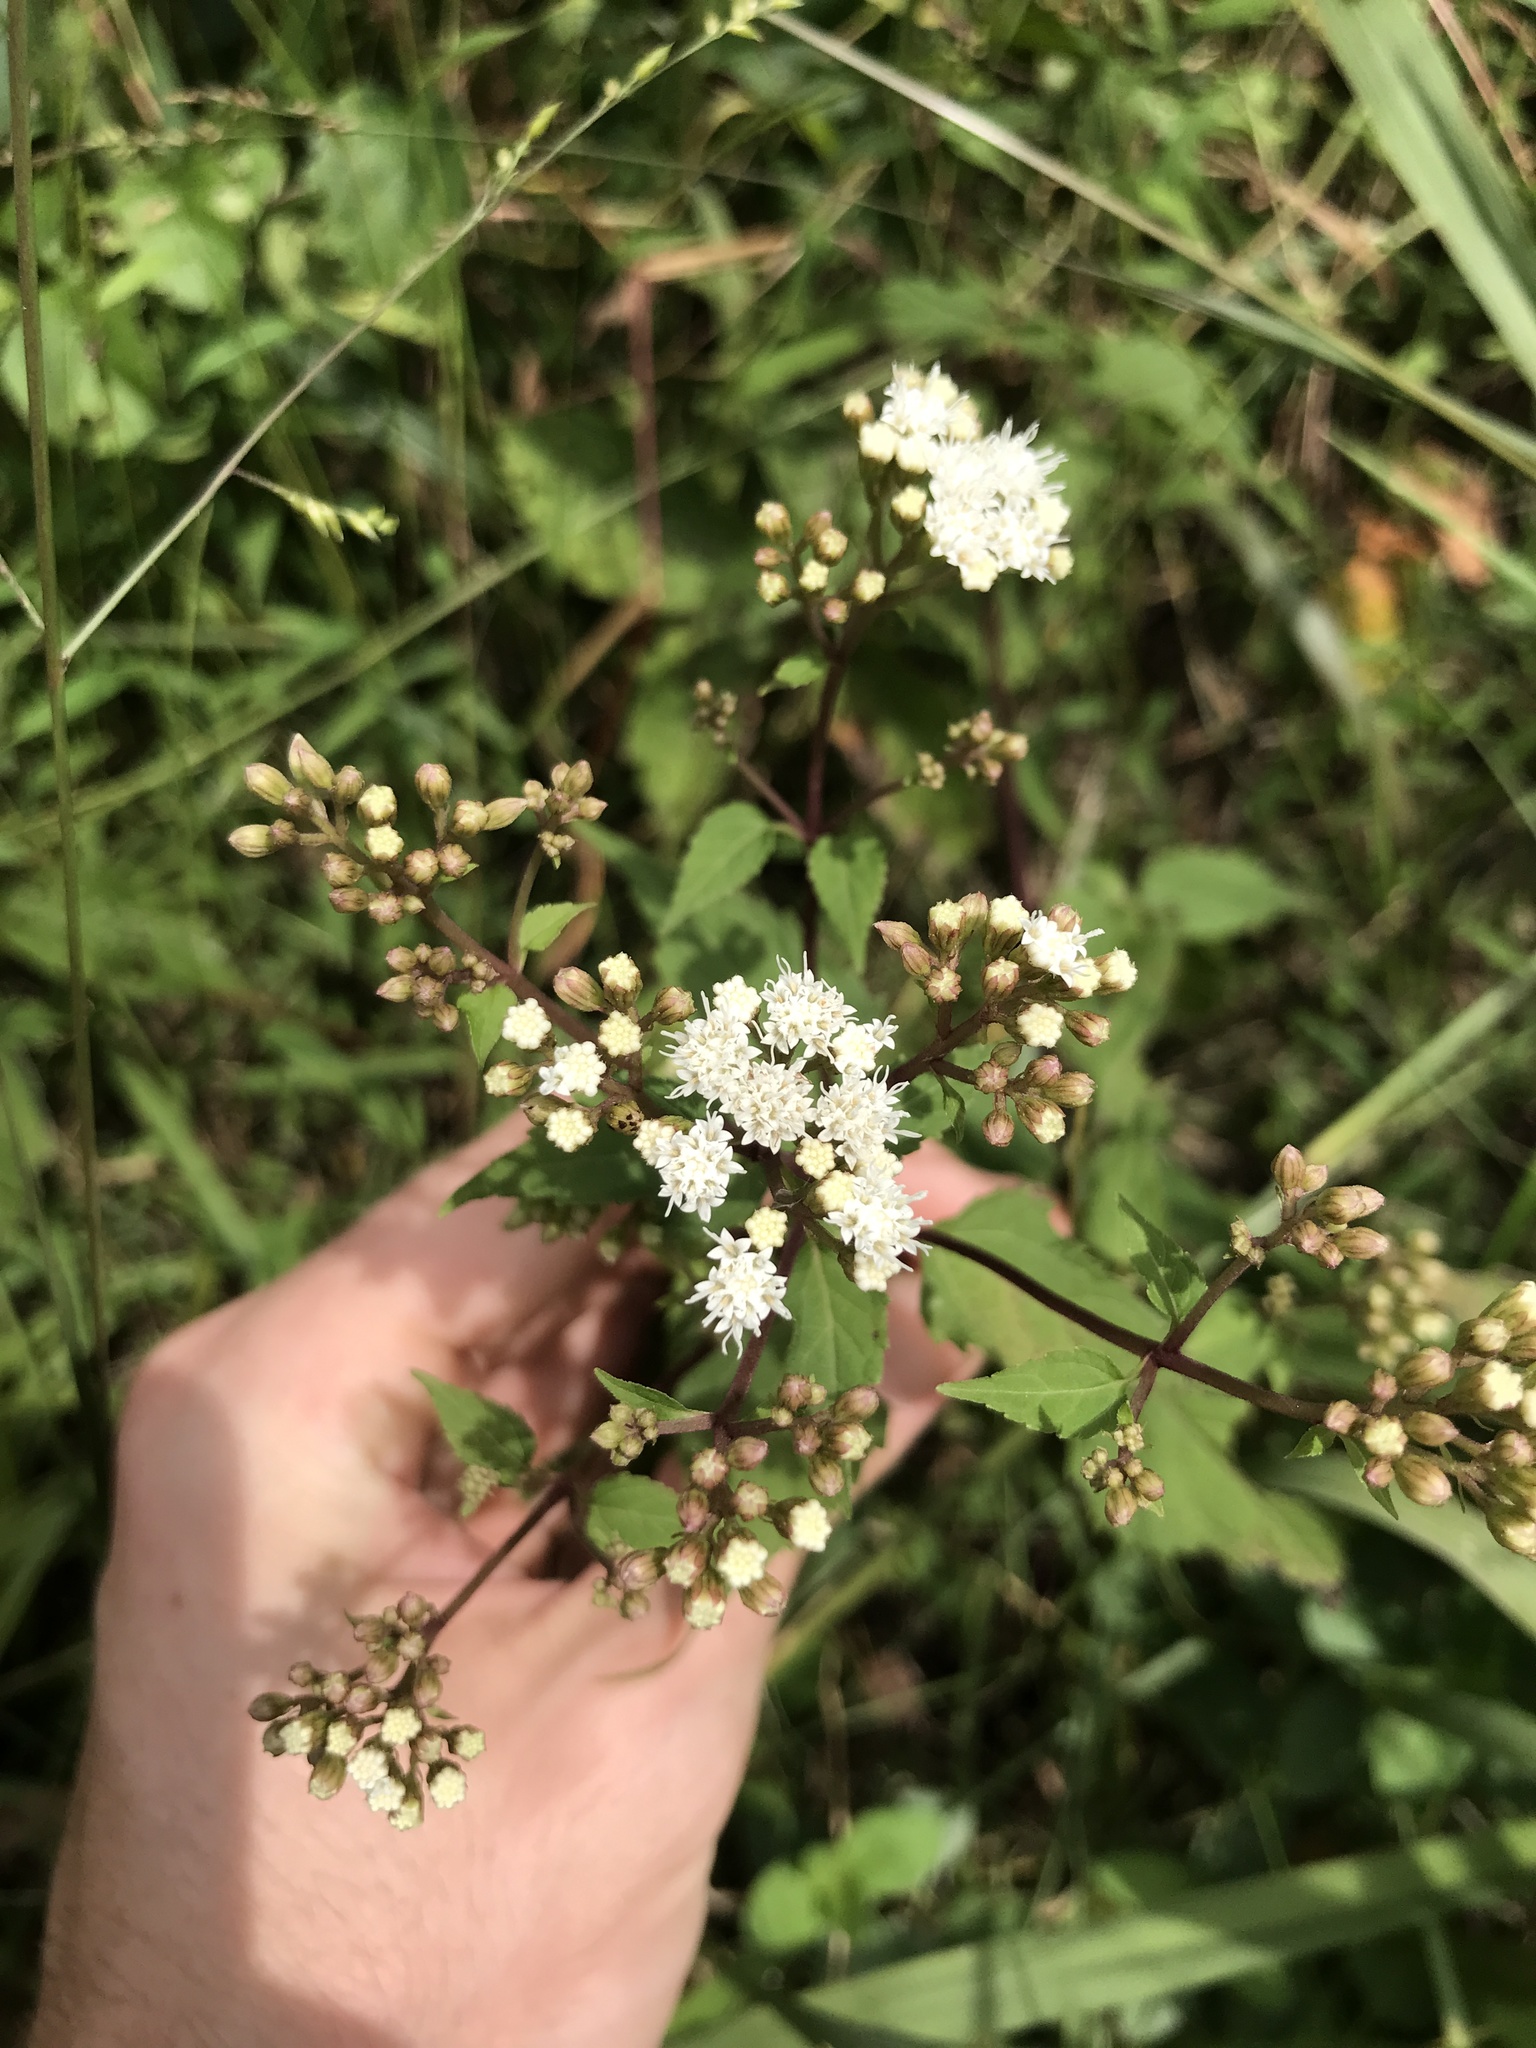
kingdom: Plantae
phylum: Tracheophyta
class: Magnoliopsida
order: Asterales
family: Asteraceae
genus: Ageratina
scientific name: Ageratina altissima
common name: White snakeroot
